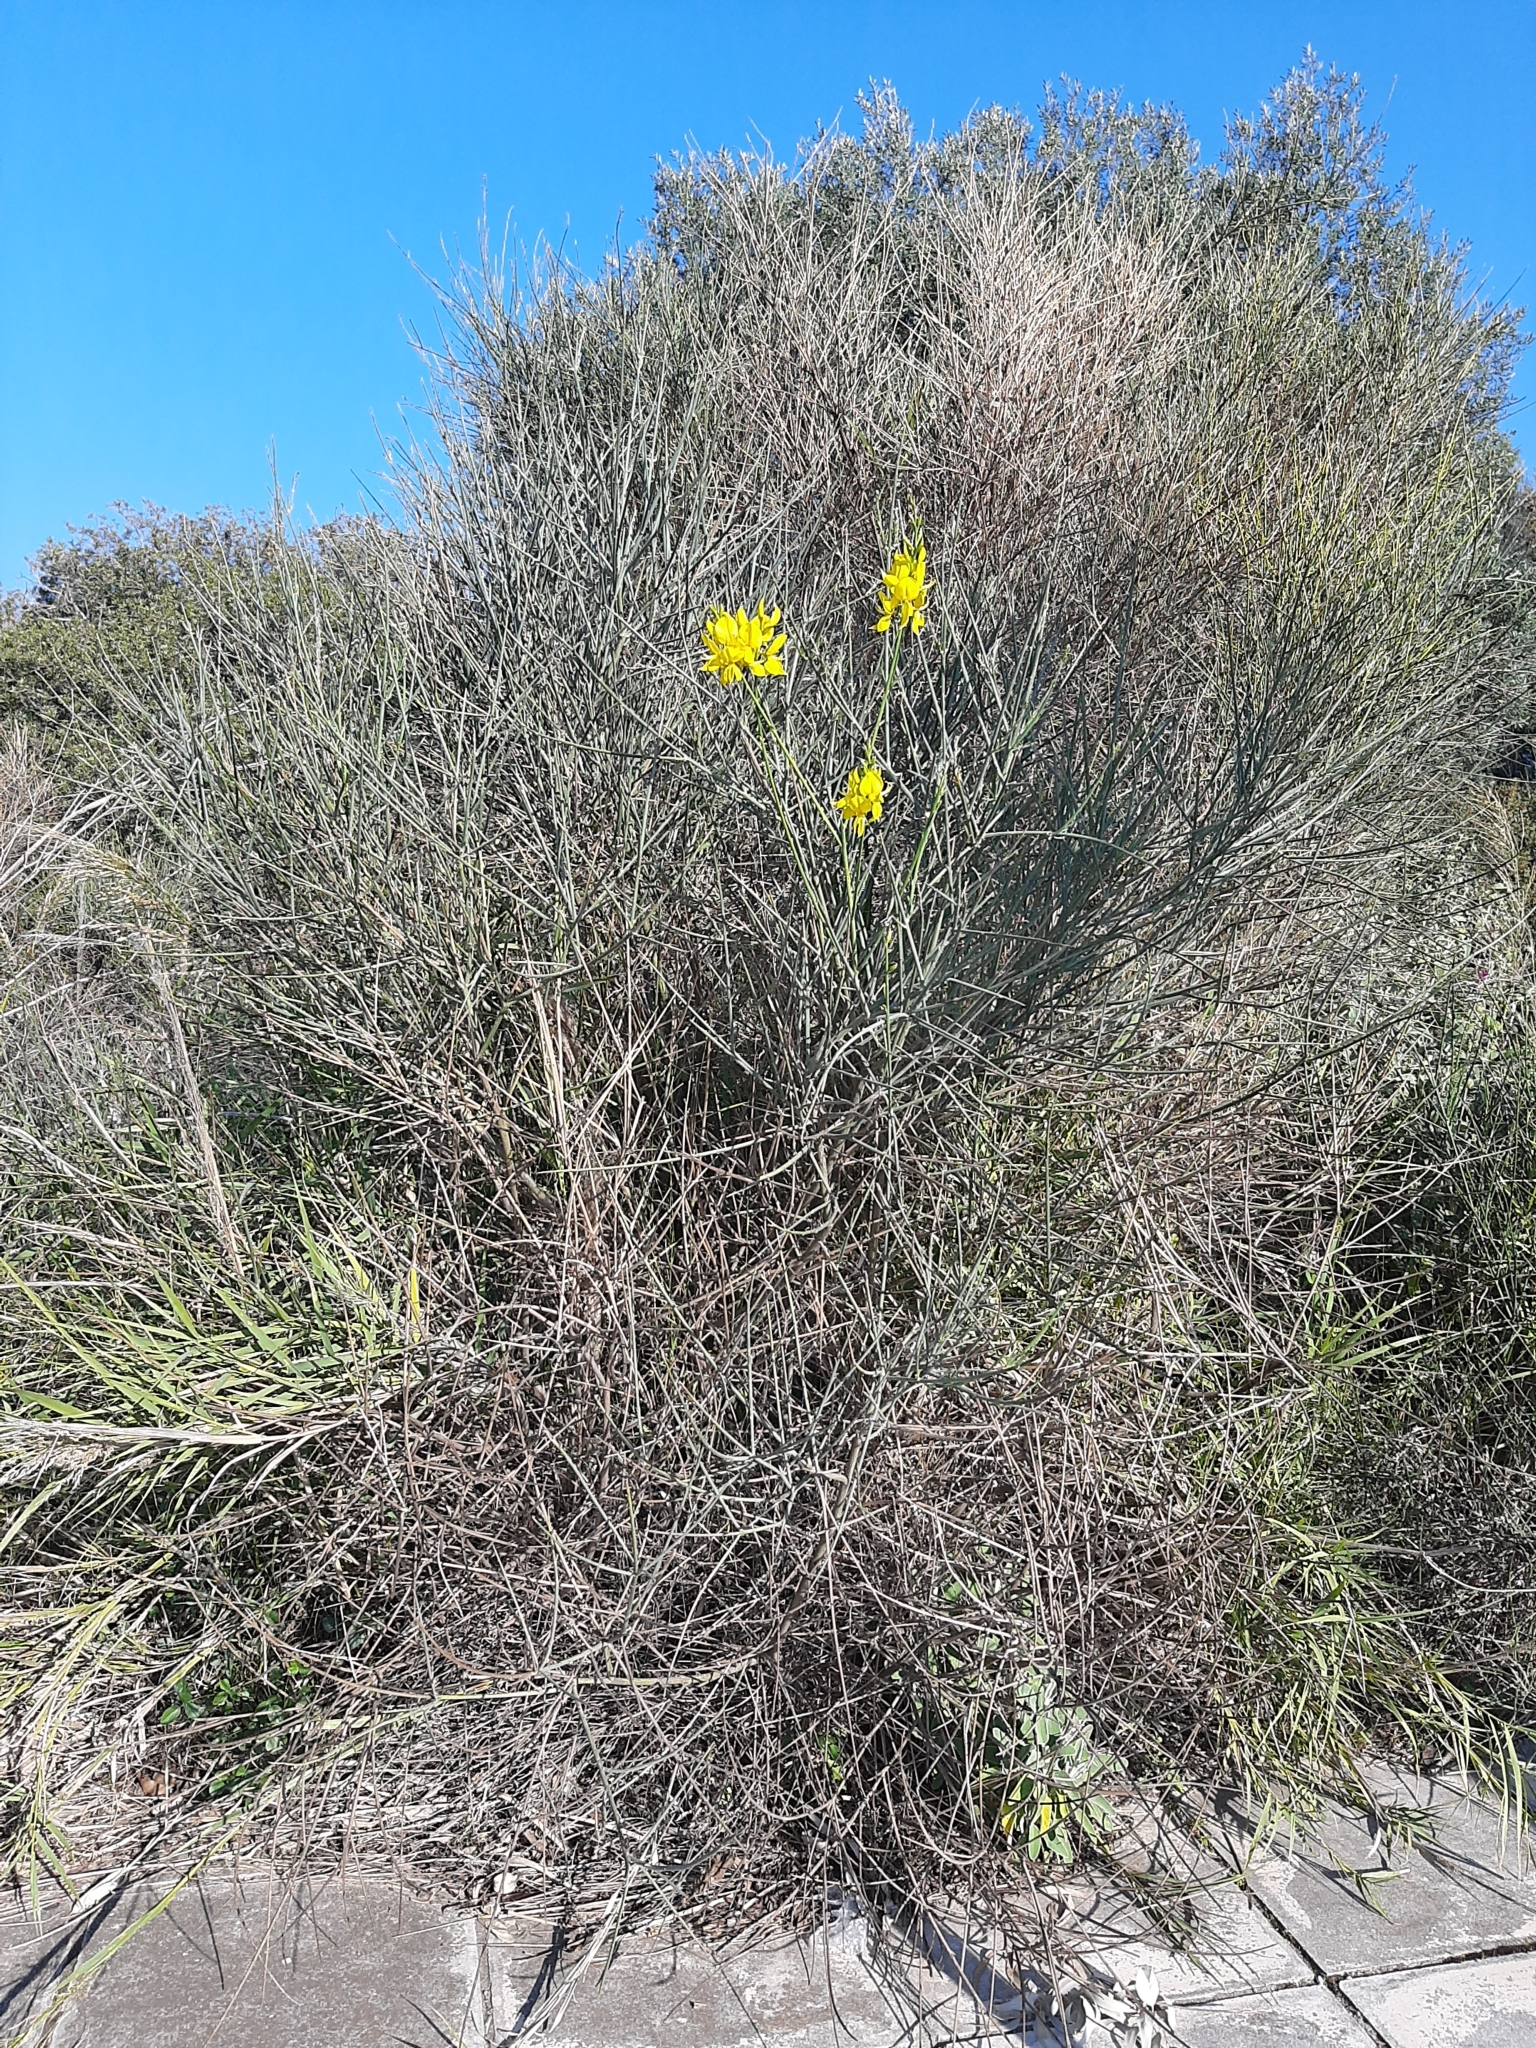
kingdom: Plantae
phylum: Tracheophyta
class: Magnoliopsida
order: Fabales
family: Fabaceae
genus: Spartium
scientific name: Spartium junceum
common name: Spanish broom
